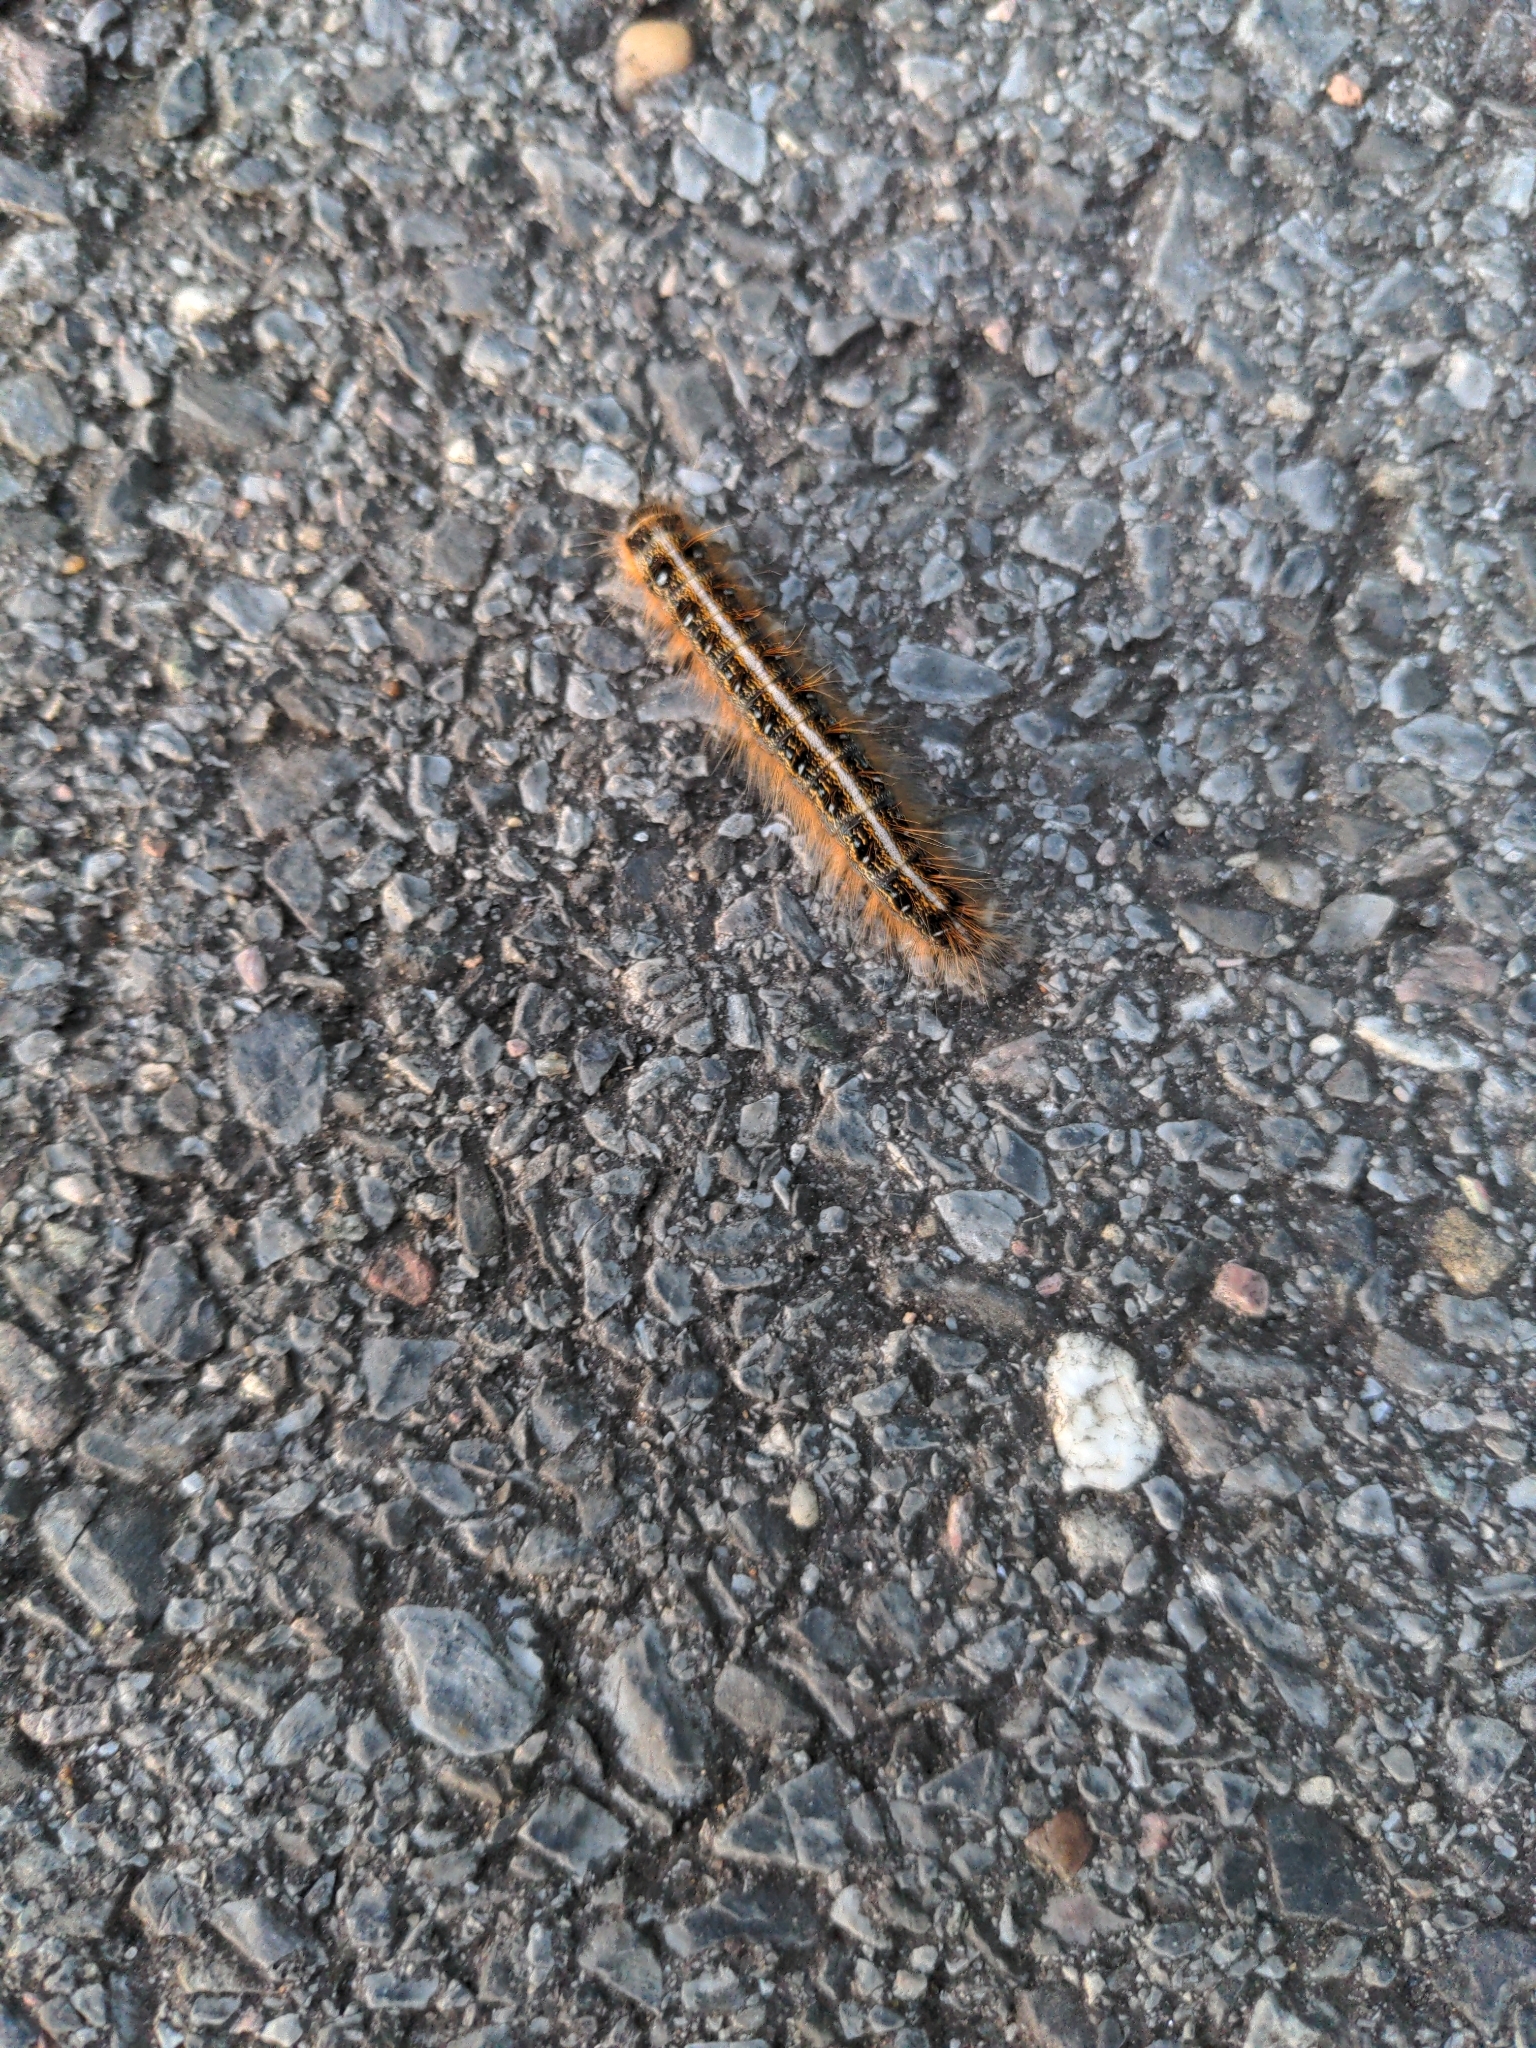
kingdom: Animalia
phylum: Arthropoda
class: Insecta
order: Lepidoptera
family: Lasiocampidae
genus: Malacosoma
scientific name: Malacosoma americana
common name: Eastern tent caterpillar moth
